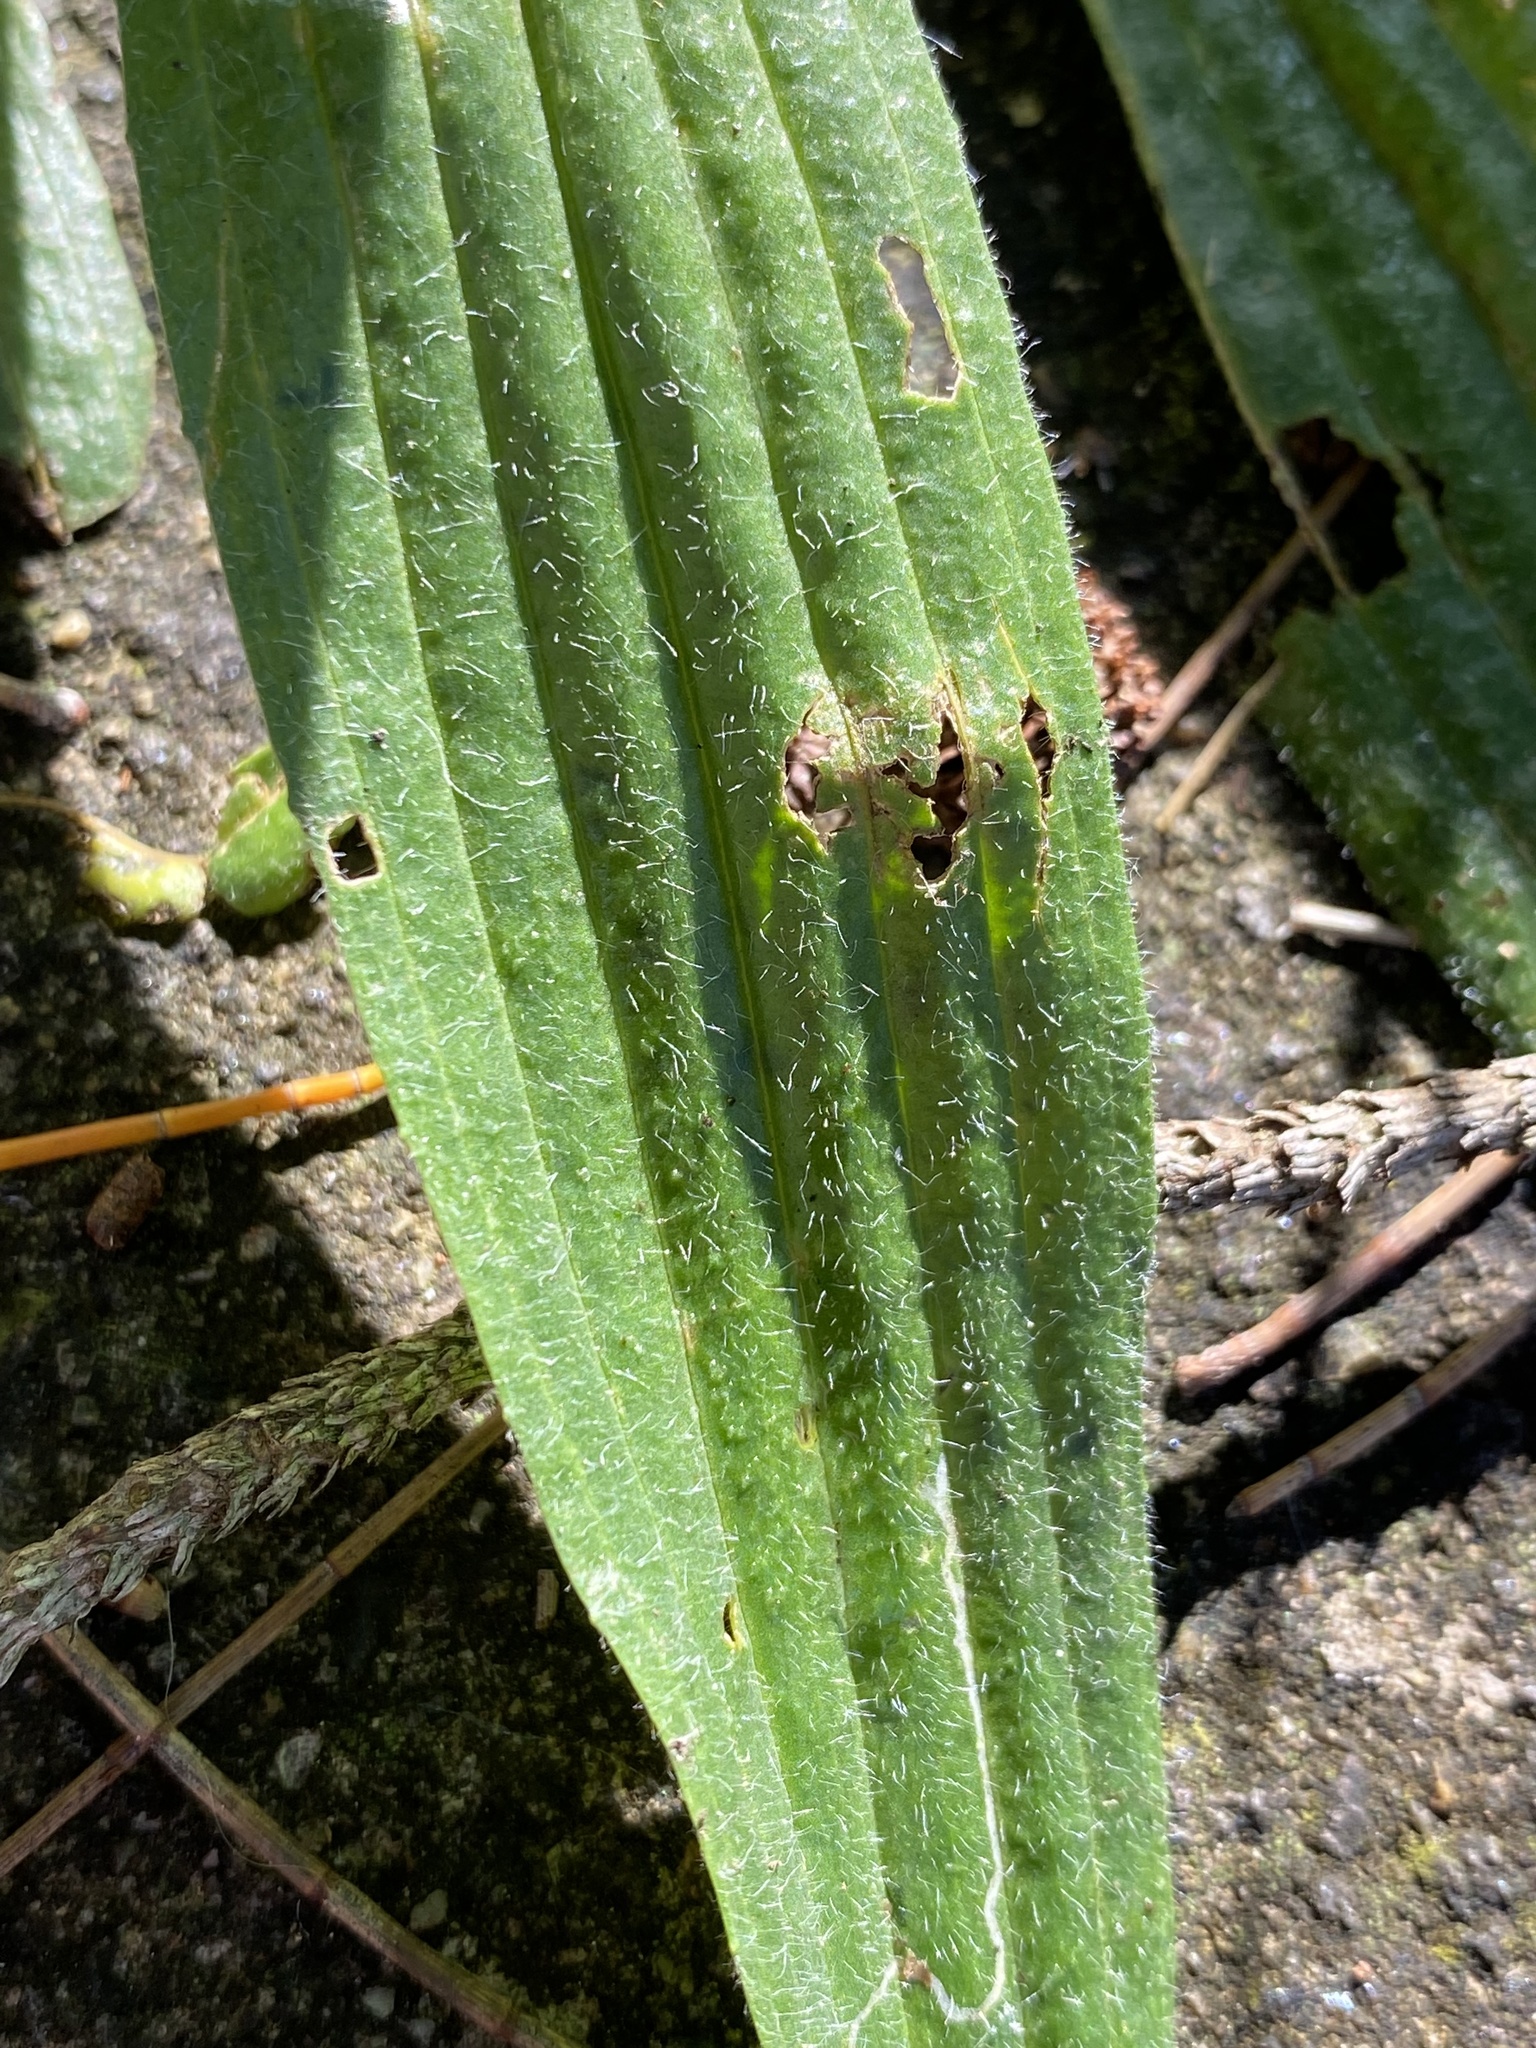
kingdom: Plantae
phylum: Tracheophyta
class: Magnoliopsida
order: Lamiales
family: Plantaginaceae
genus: Plantago
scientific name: Plantago lanceolata
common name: Ribwort plantain
